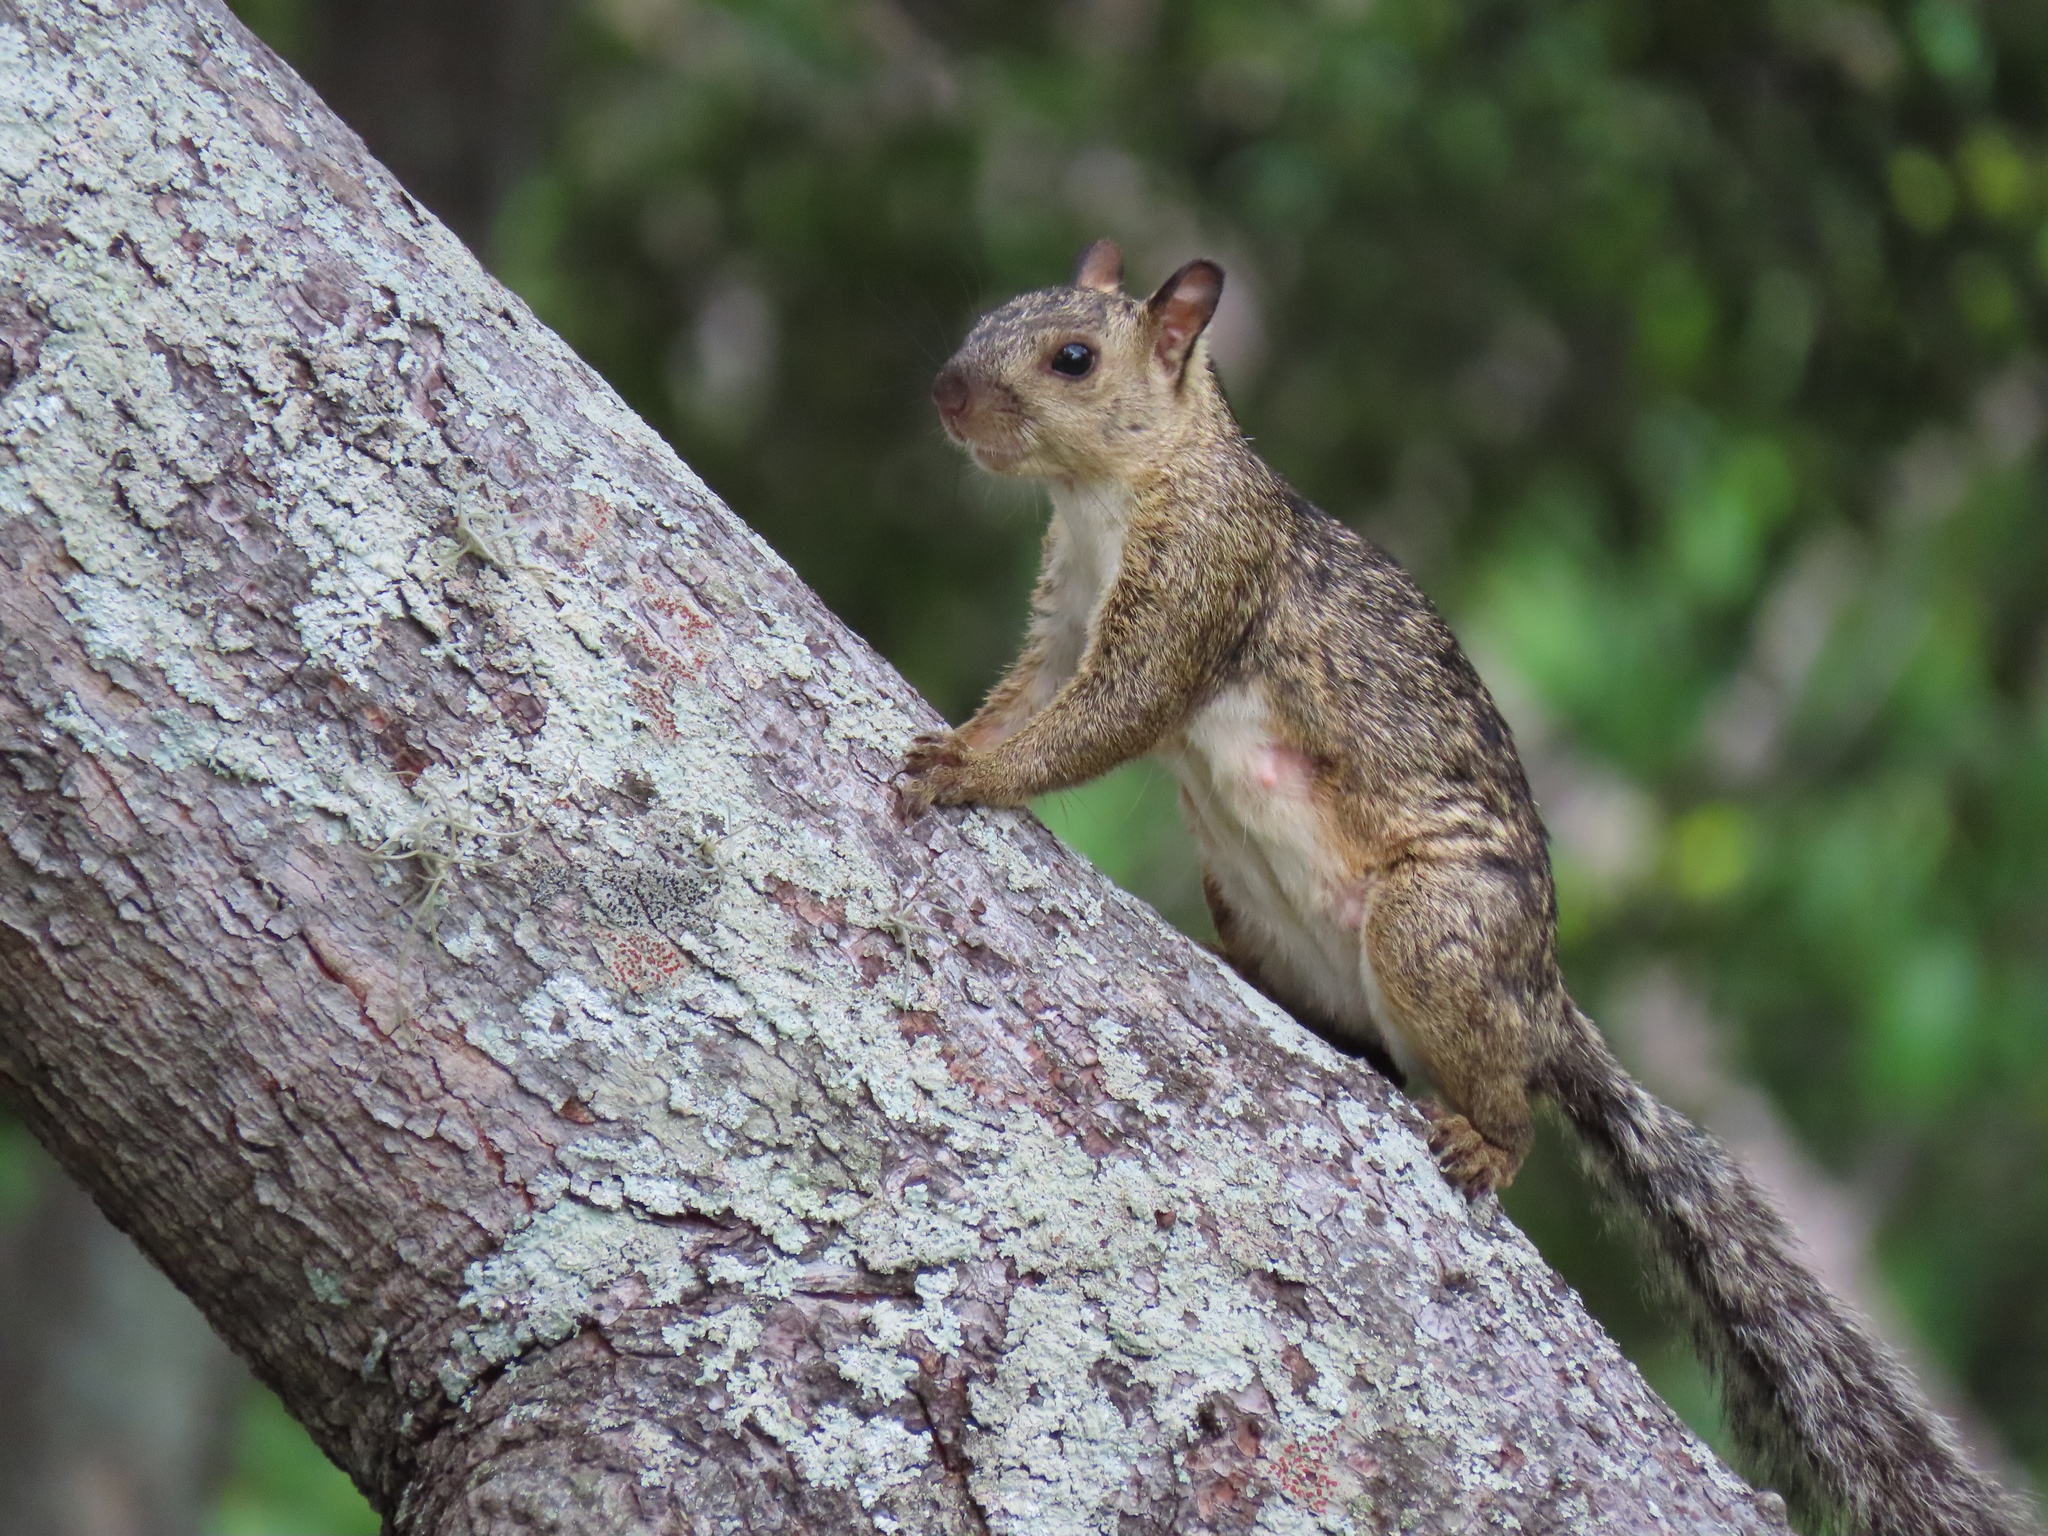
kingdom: Animalia
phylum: Chordata
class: Mammalia
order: Rodentia
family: Sciuridae
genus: Sciurus
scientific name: Sciurus variegatoides
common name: Variegated squirrel
